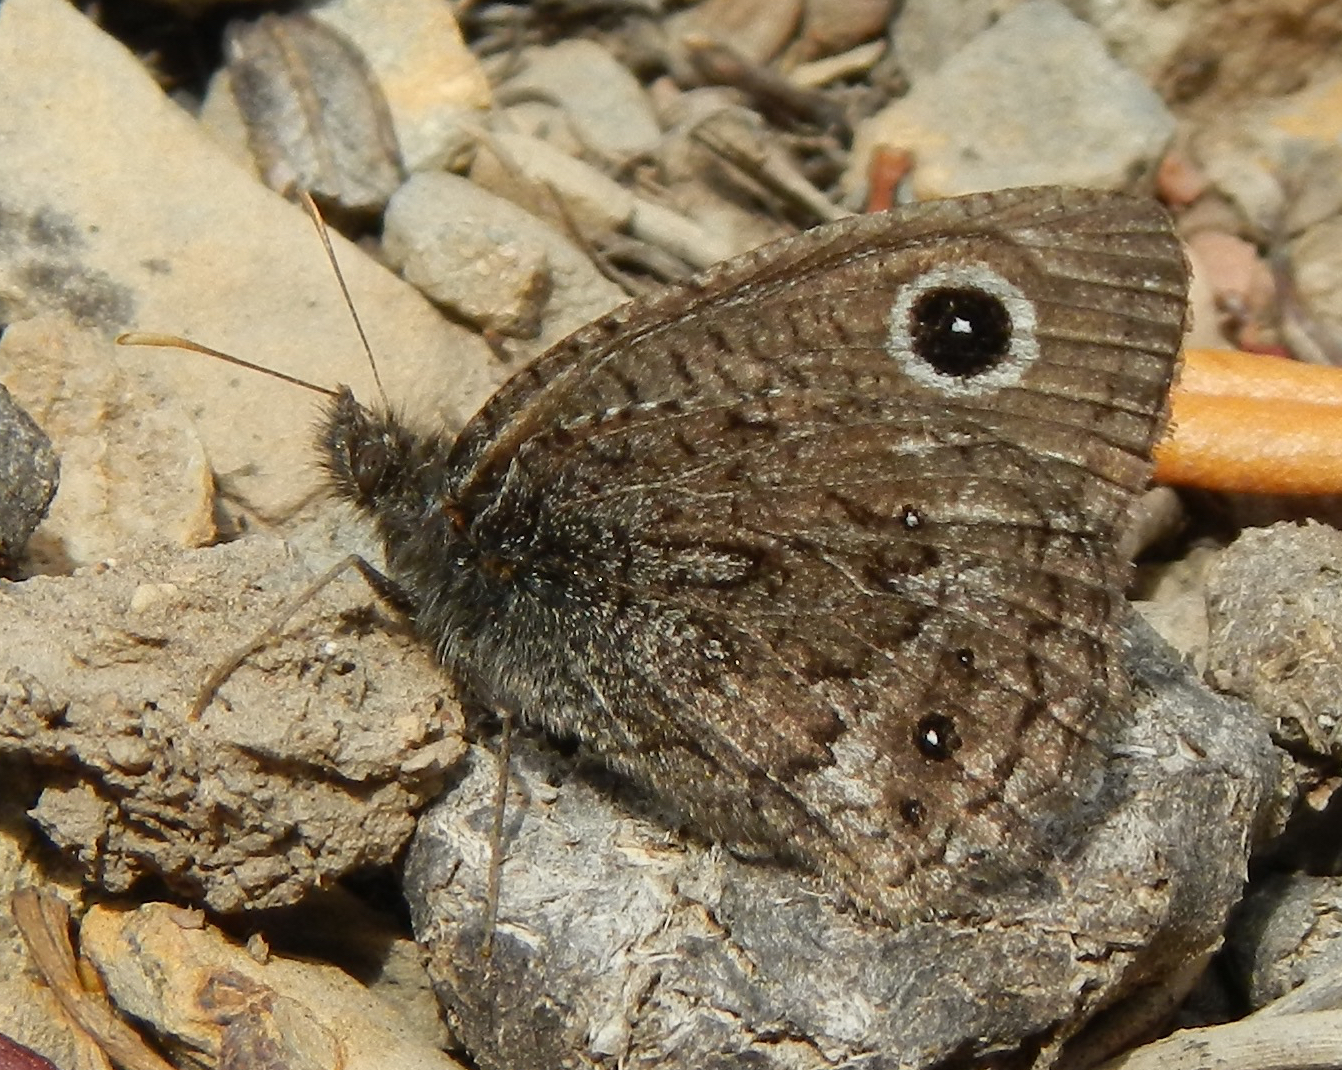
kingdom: Animalia
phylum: Arthropoda
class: Insecta
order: Lepidoptera
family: Nymphalidae
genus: Cercyonis
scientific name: Cercyonis oetus
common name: Small wood-nymph
